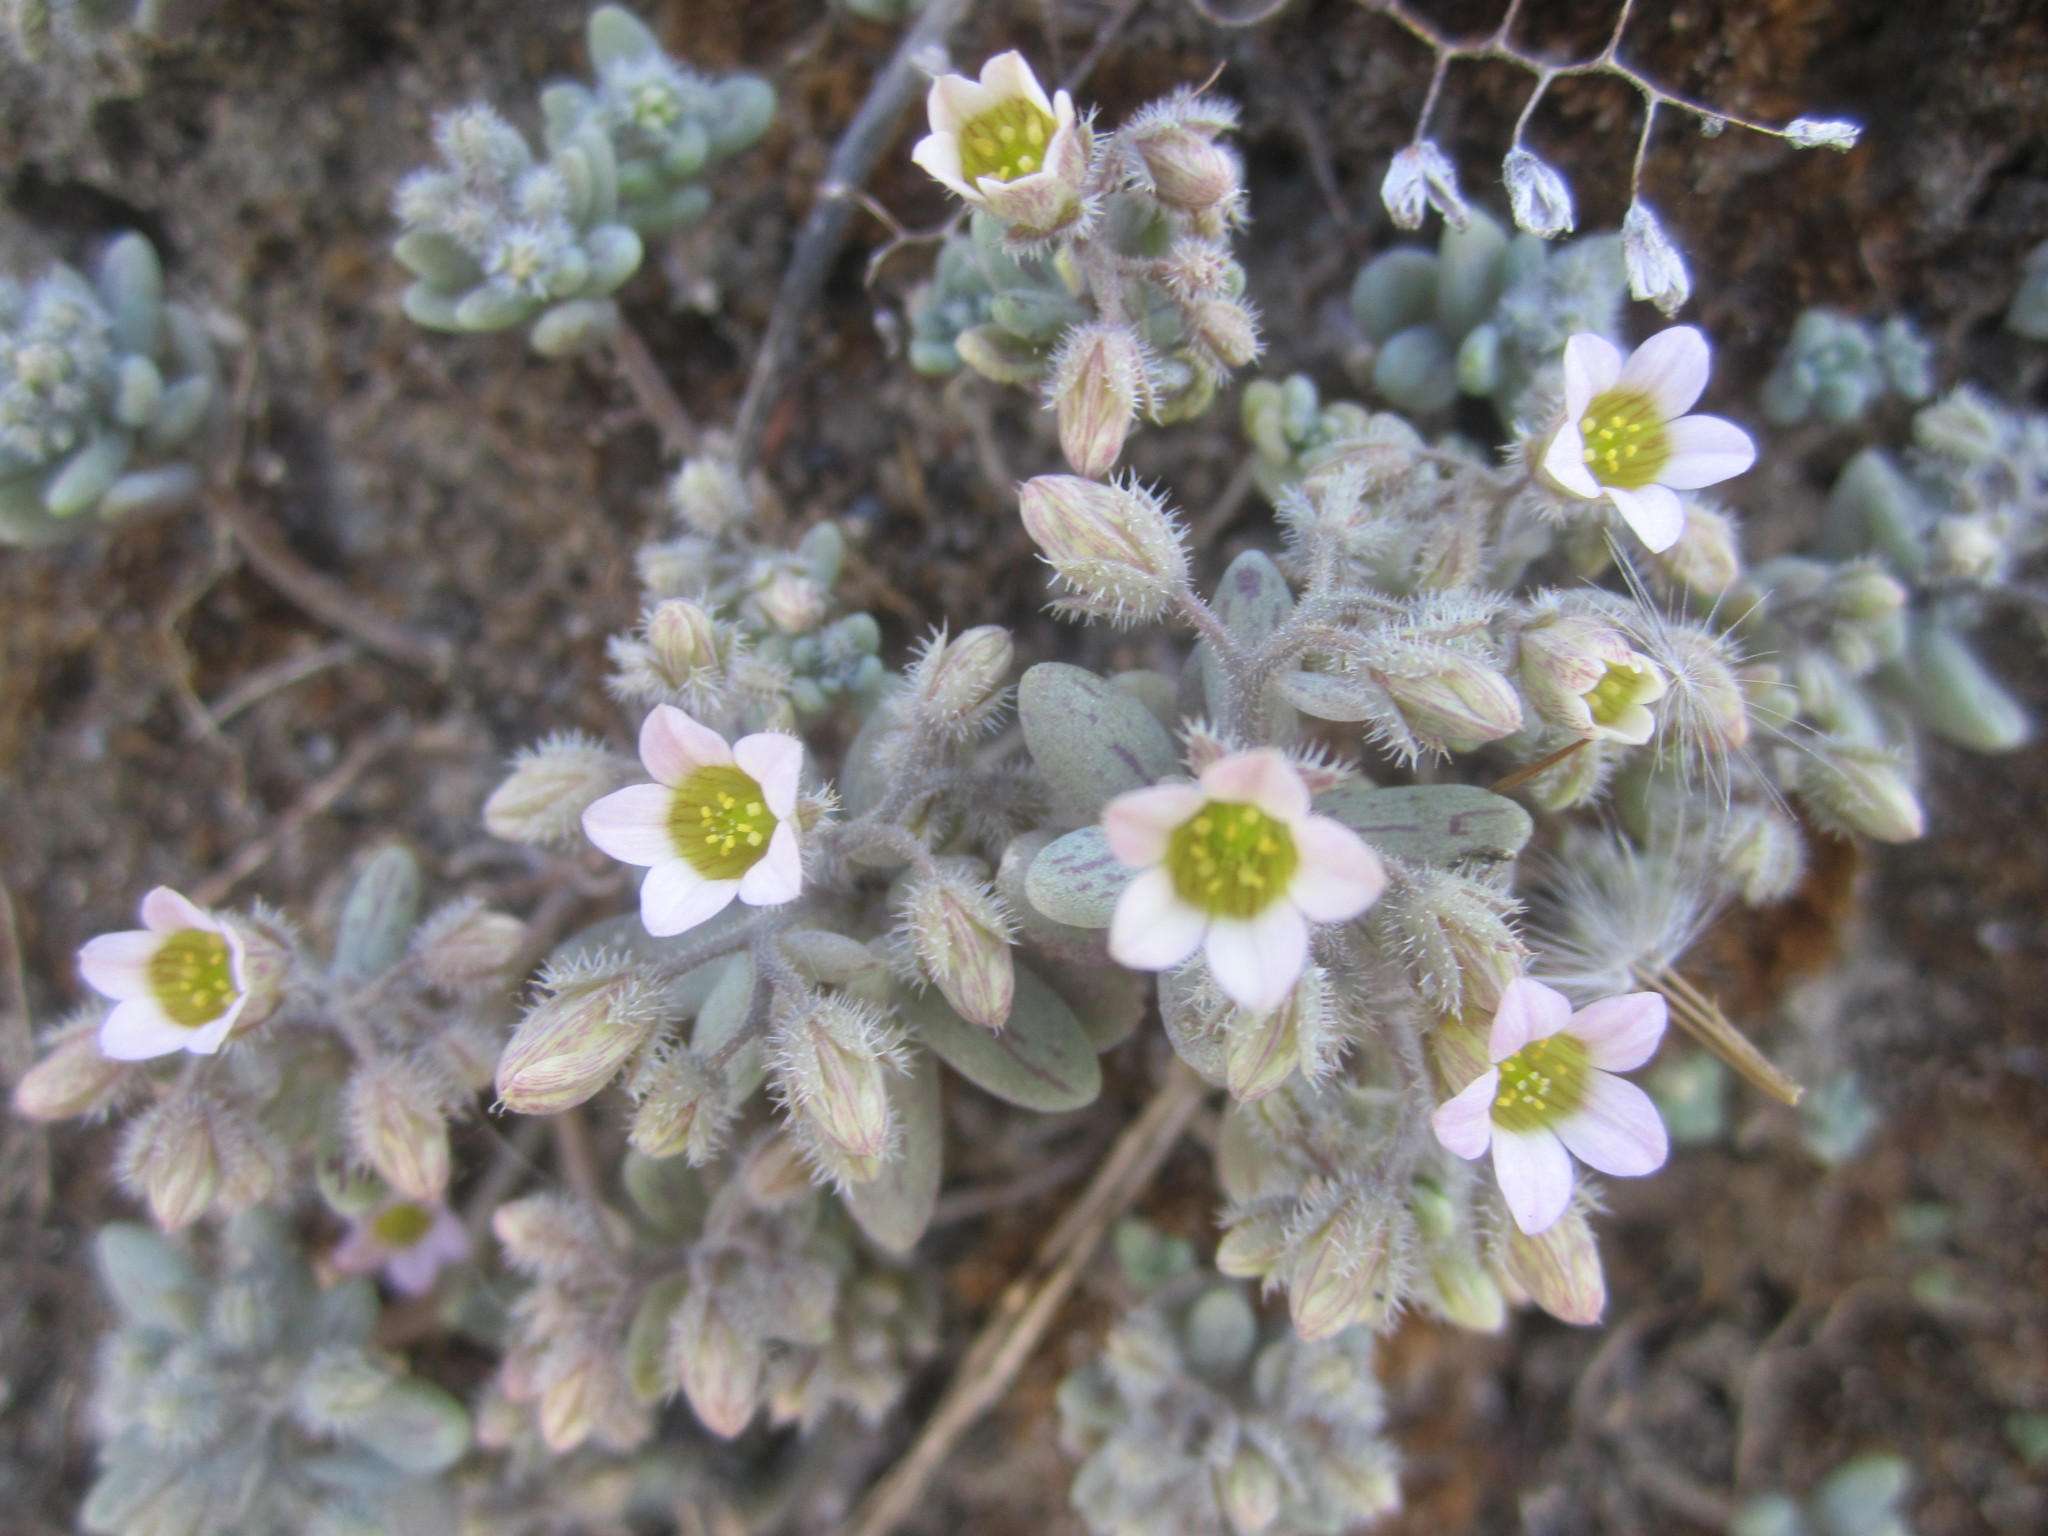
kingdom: Plantae
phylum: Tracheophyta
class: Magnoliopsida
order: Saxifragales
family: Crassulaceae
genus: Sedum
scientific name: Sedum mucizonia
